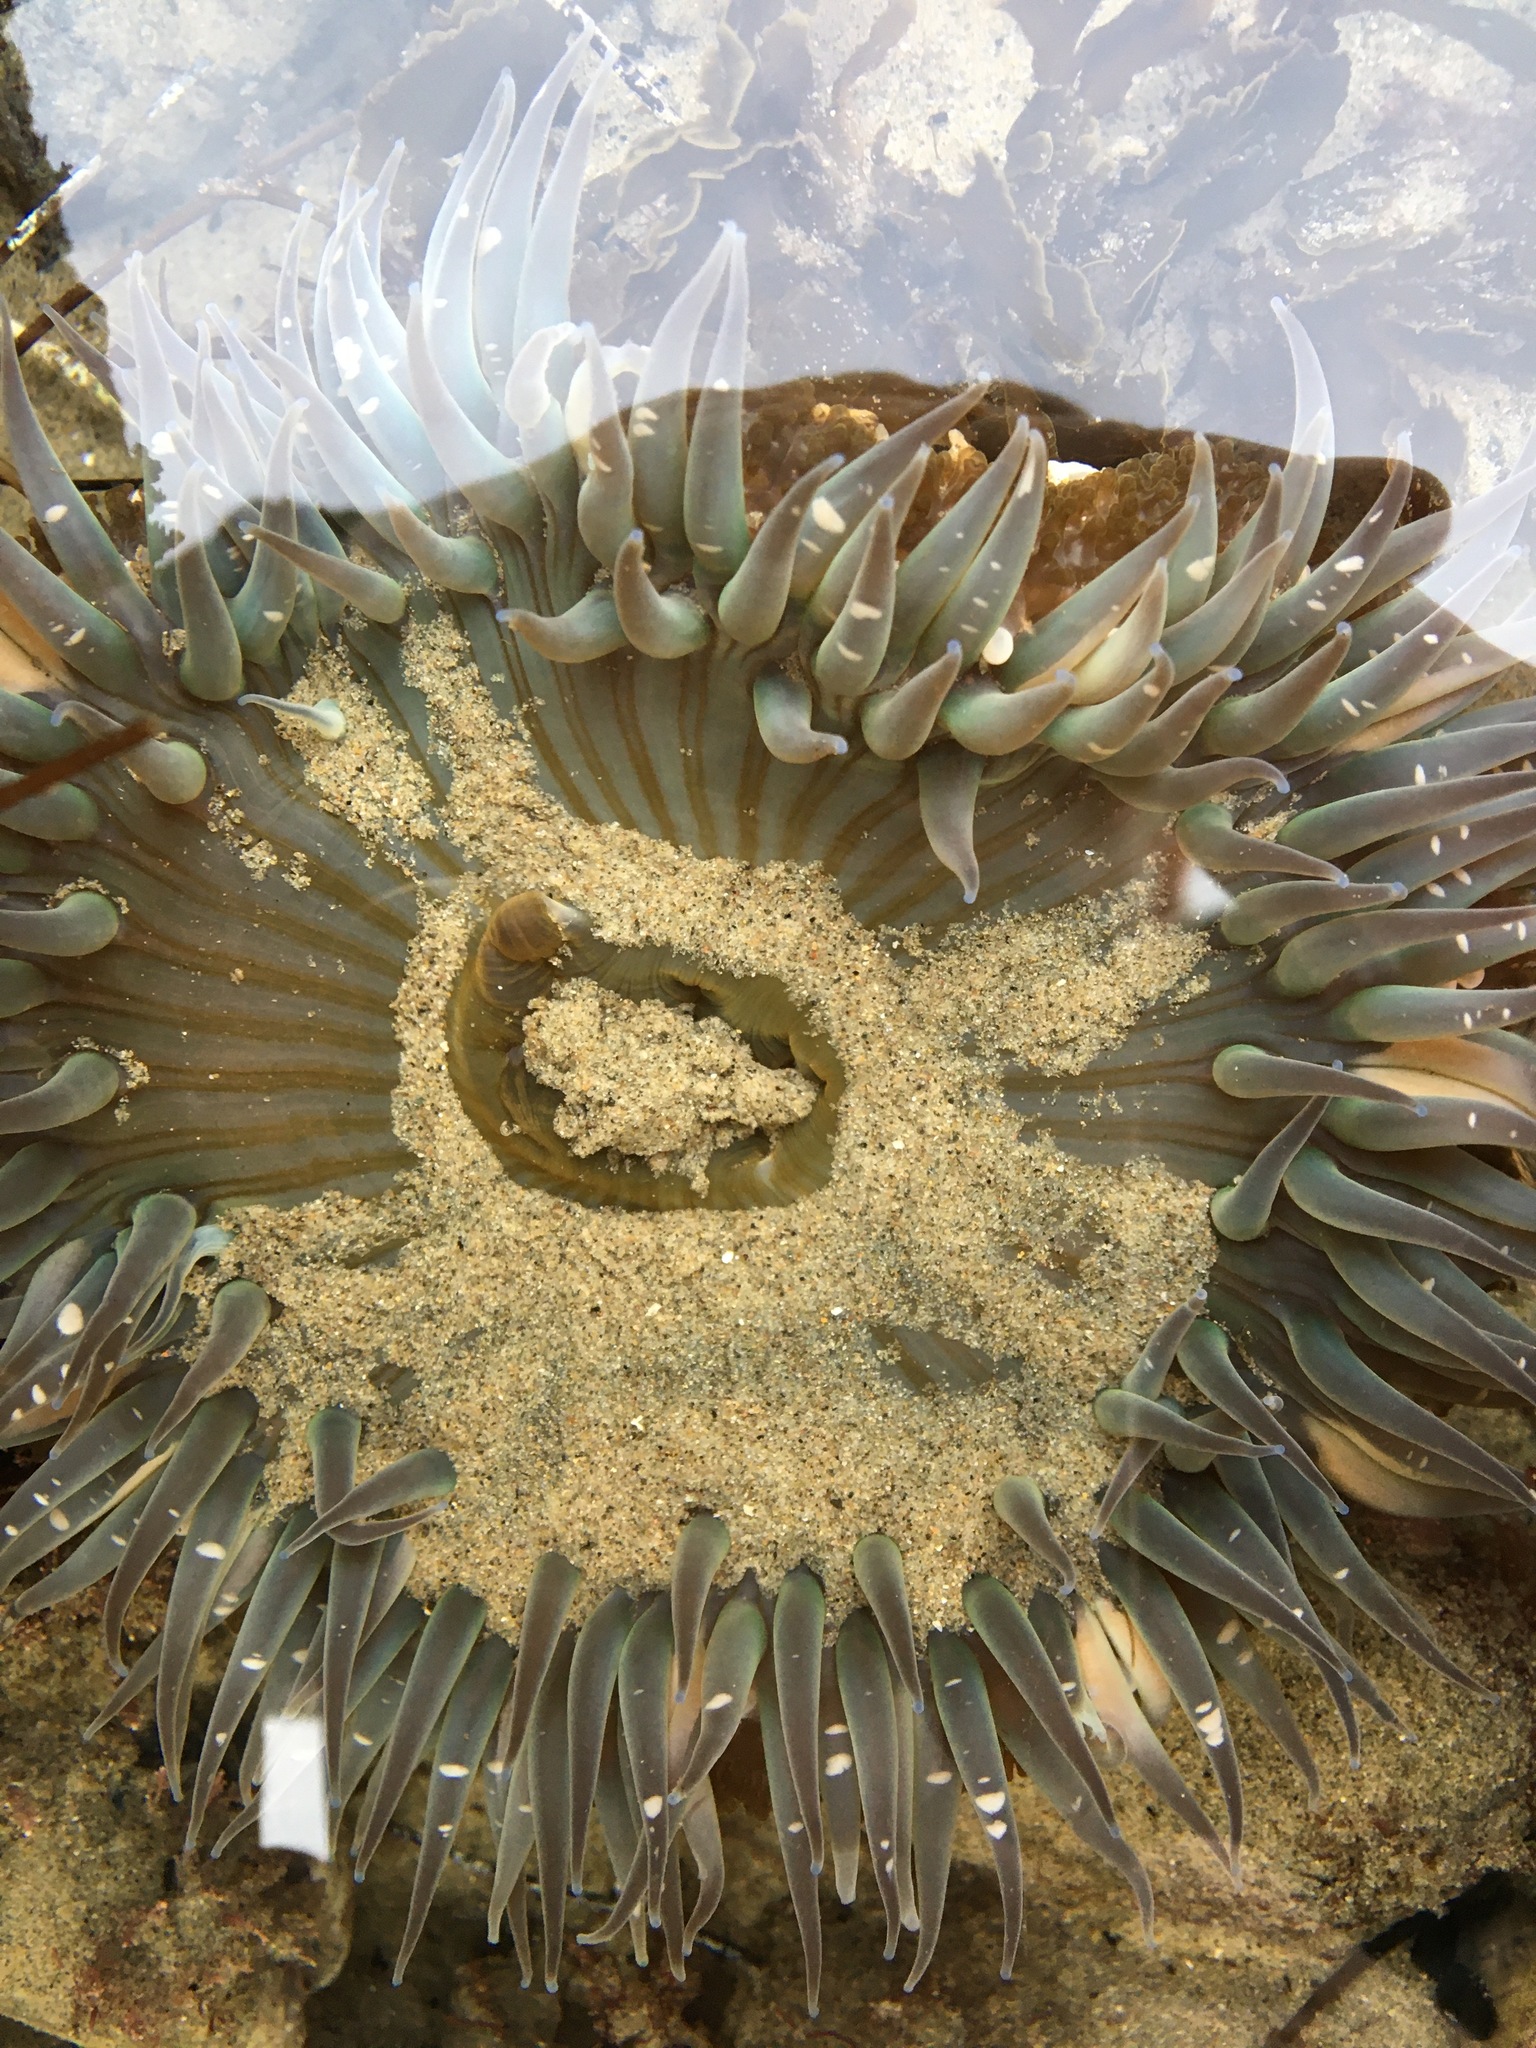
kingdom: Animalia
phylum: Cnidaria
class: Anthozoa
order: Actiniaria
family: Actiniidae
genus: Anthopleura
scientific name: Anthopleura sola
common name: Sun anemone
